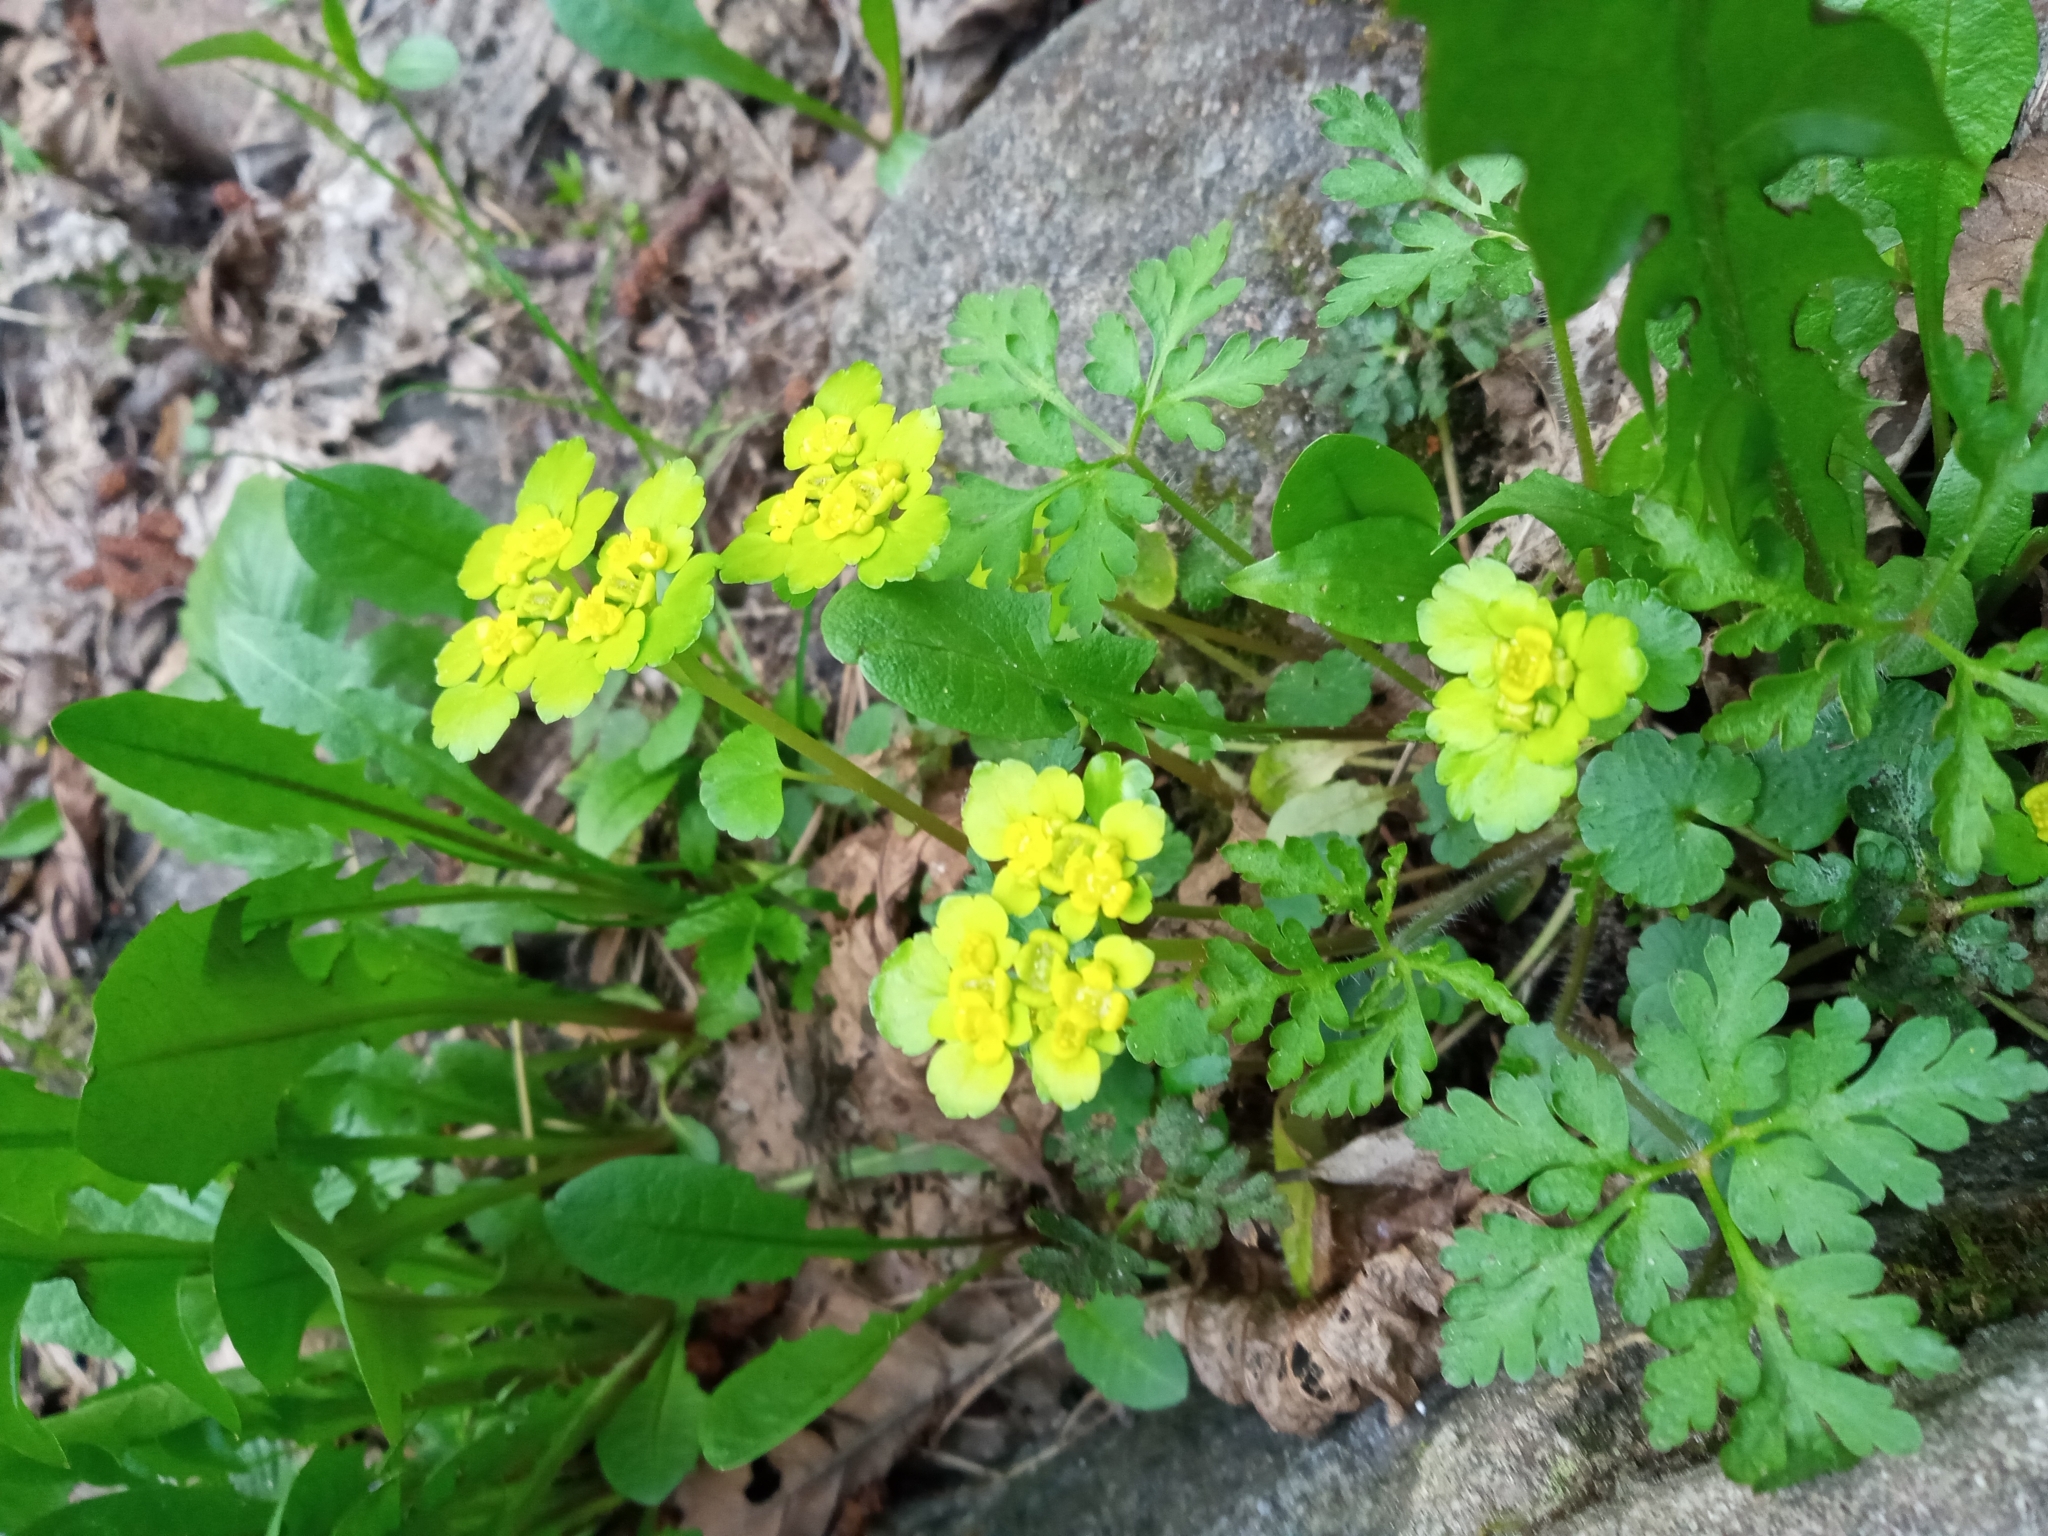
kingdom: Plantae
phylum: Tracheophyta
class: Magnoliopsida
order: Saxifragales
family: Saxifragaceae
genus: Chrysosplenium
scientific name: Chrysosplenium alternifolium
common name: Alternate-leaved golden-saxifrage
